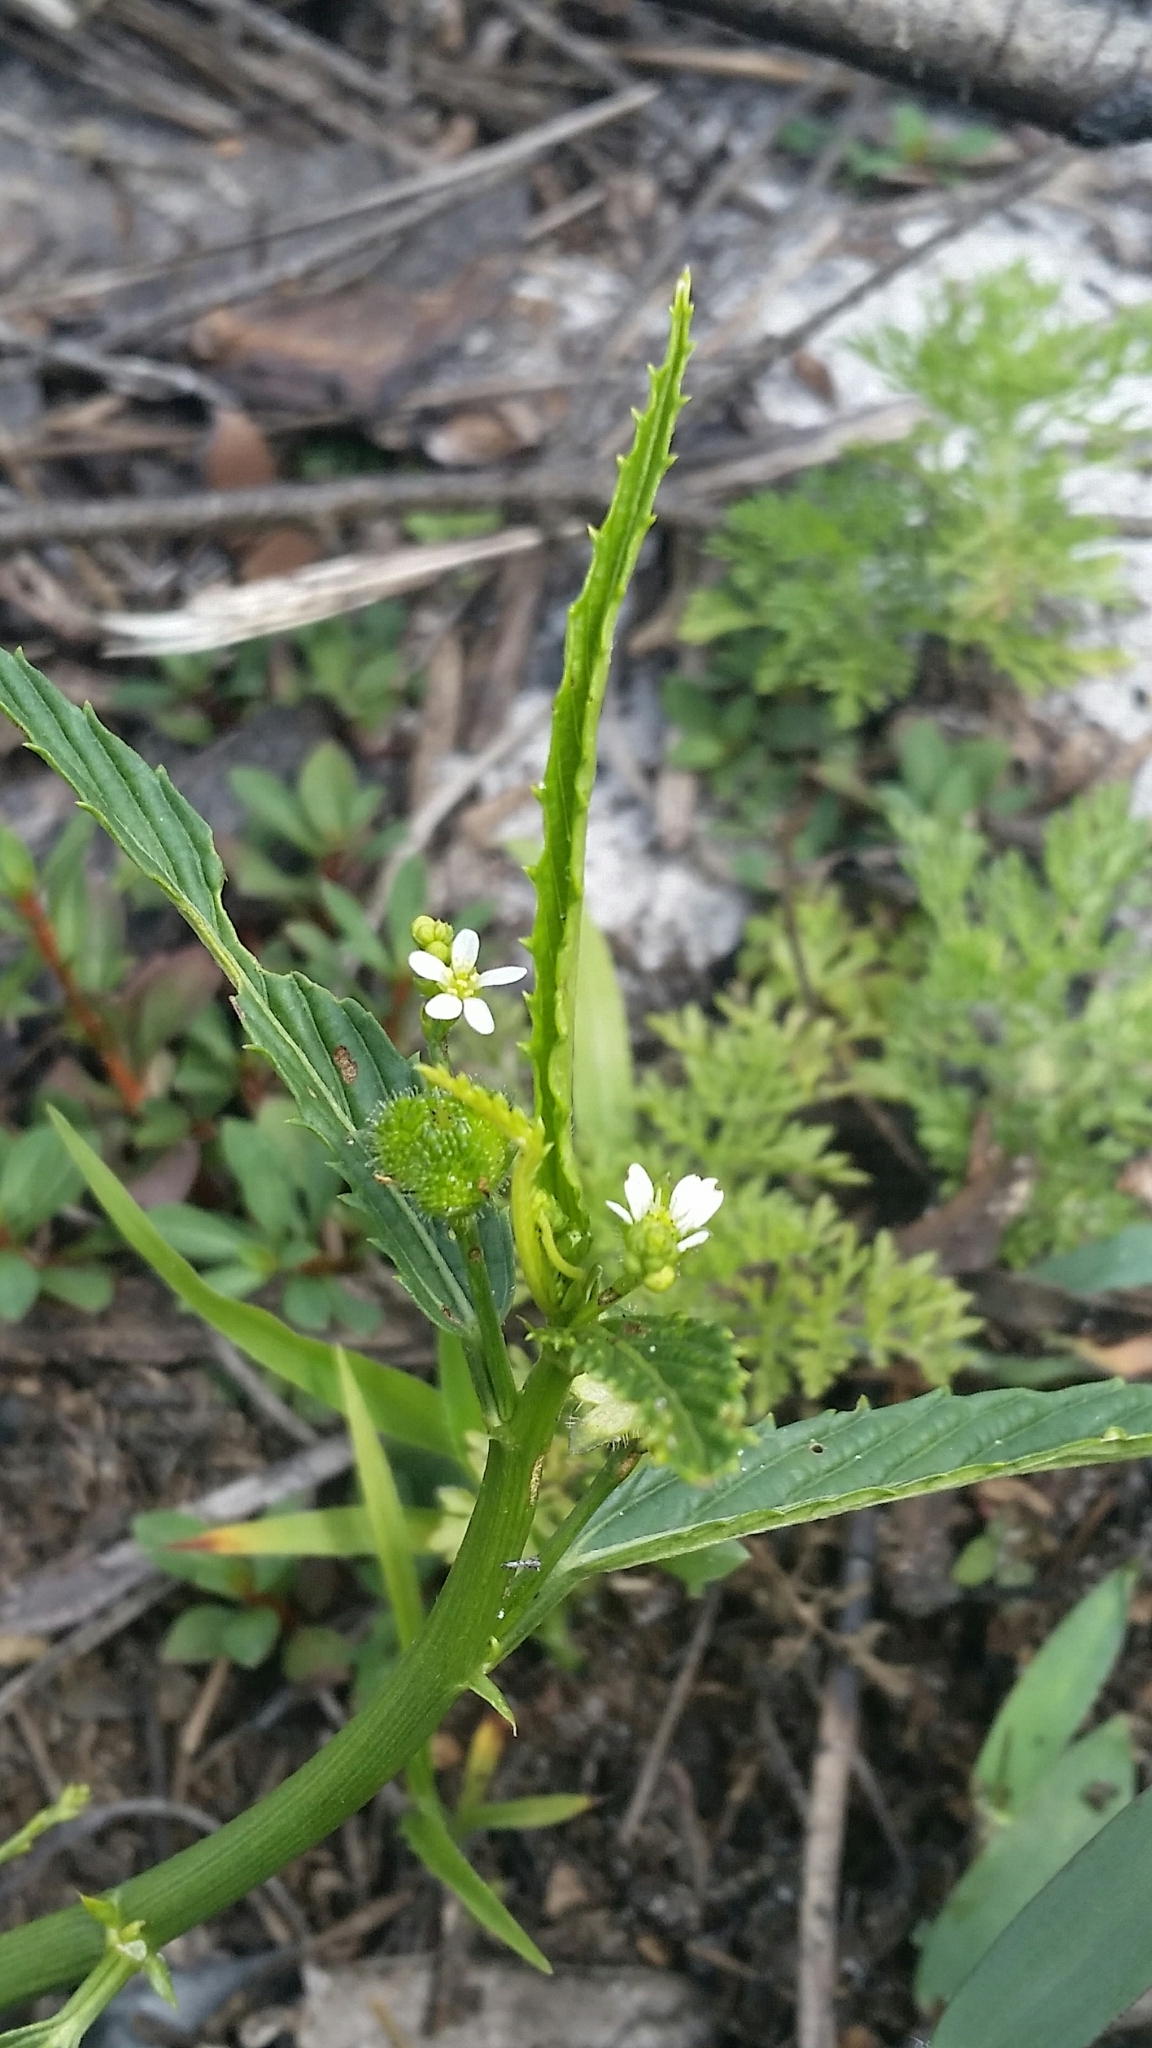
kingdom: Plantae
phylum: Tracheophyta
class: Magnoliopsida
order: Malpighiales
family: Euphorbiaceae
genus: Caperonia
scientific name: Caperonia castaneifolia
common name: Chestnutleaf false croton
